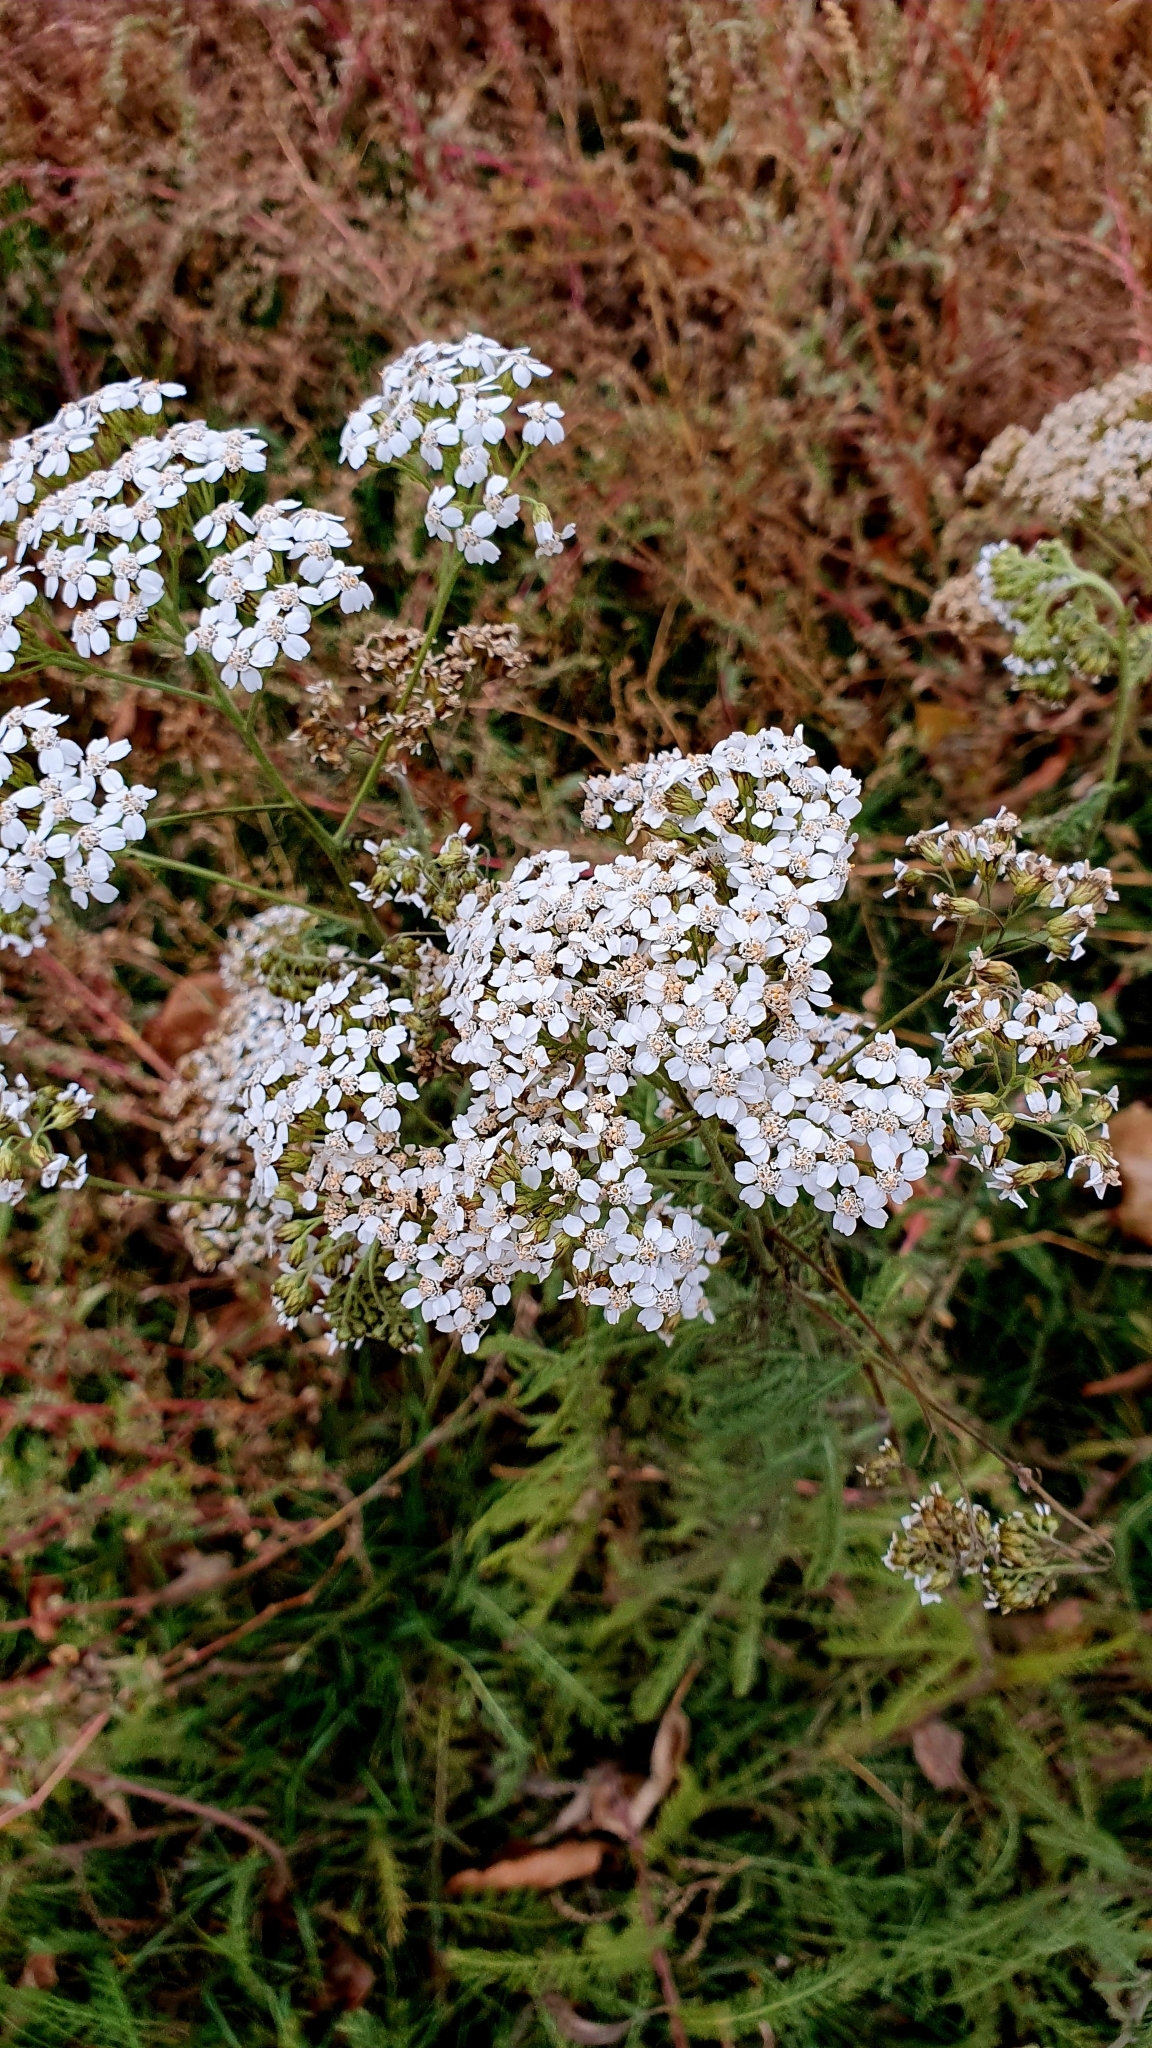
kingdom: Plantae
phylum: Tracheophyta
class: Magnoliopsida
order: Asterales
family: Asteraceae
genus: Achillea
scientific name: Achillea millefolium
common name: Yarrow
